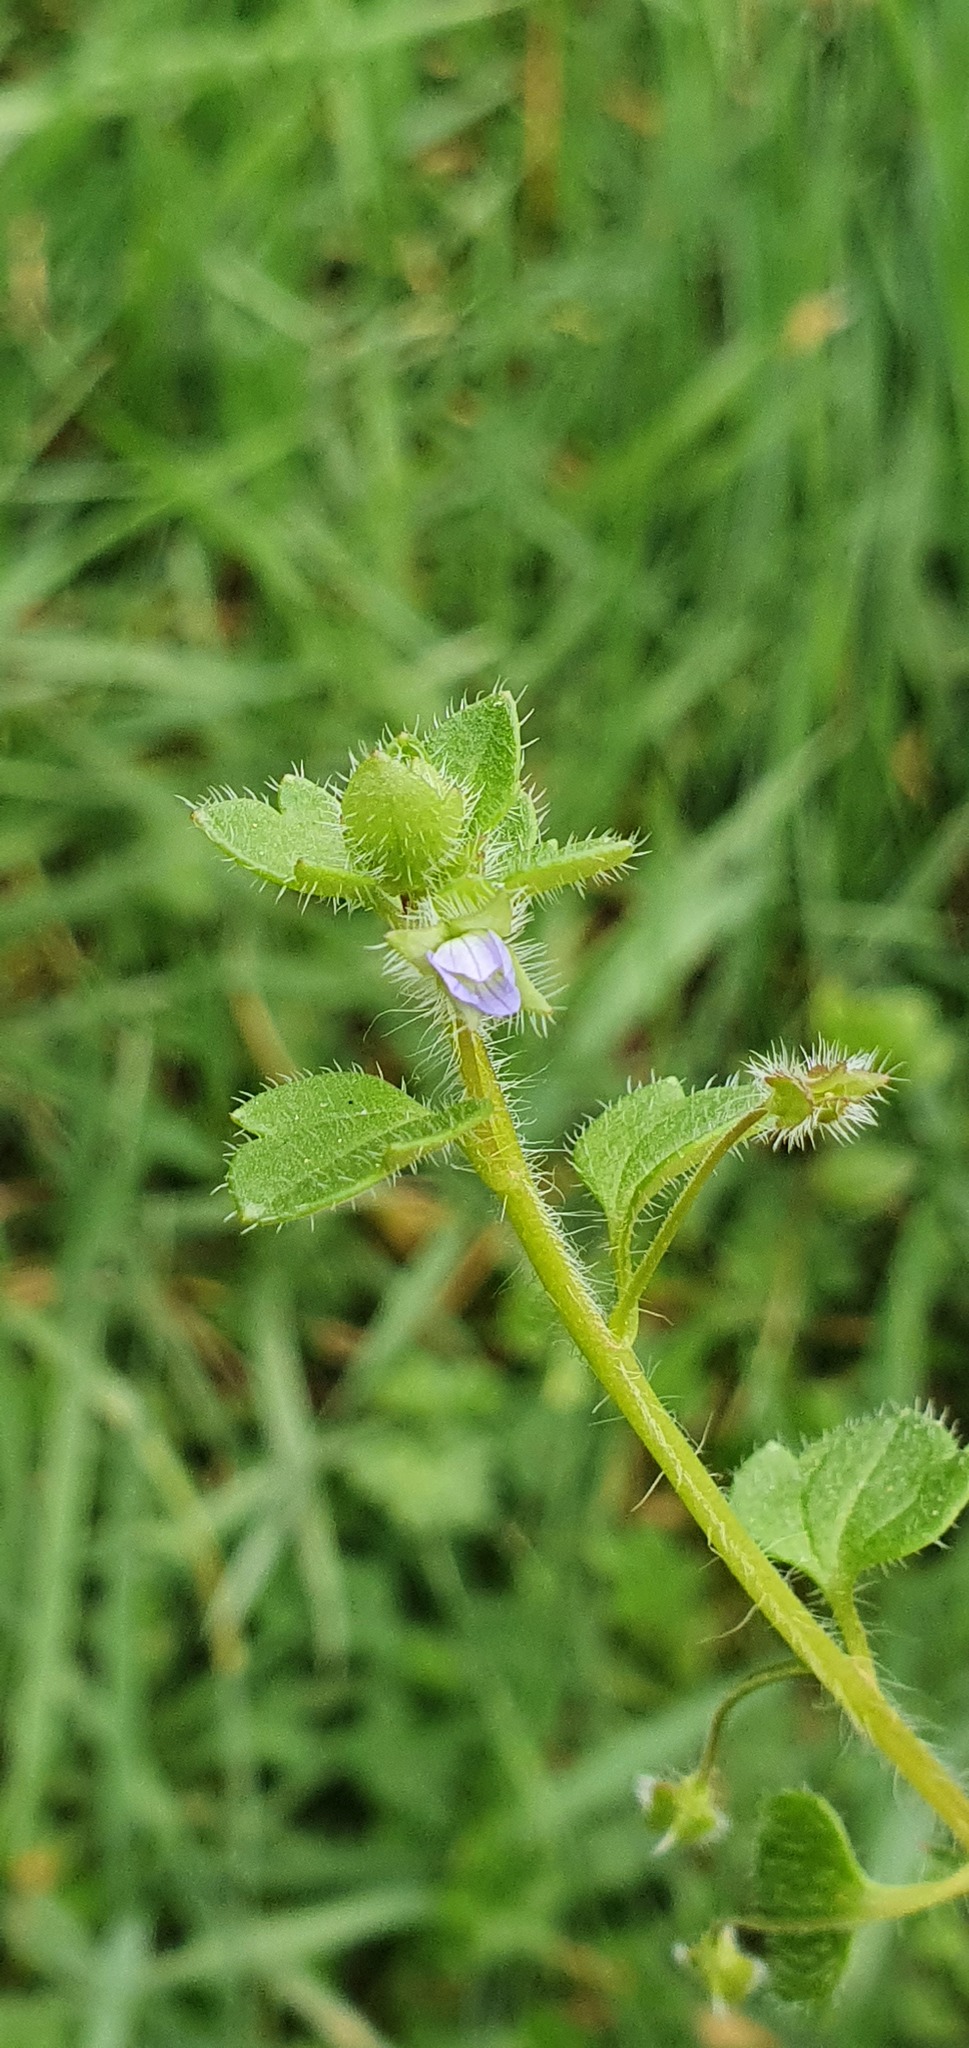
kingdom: Plantae
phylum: Tracheophyta
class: Magnoliopsida
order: Lamiales
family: Plantaginaceae
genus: Veronica
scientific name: Veronica hederifolia
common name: Ivy-leaved speedwell
